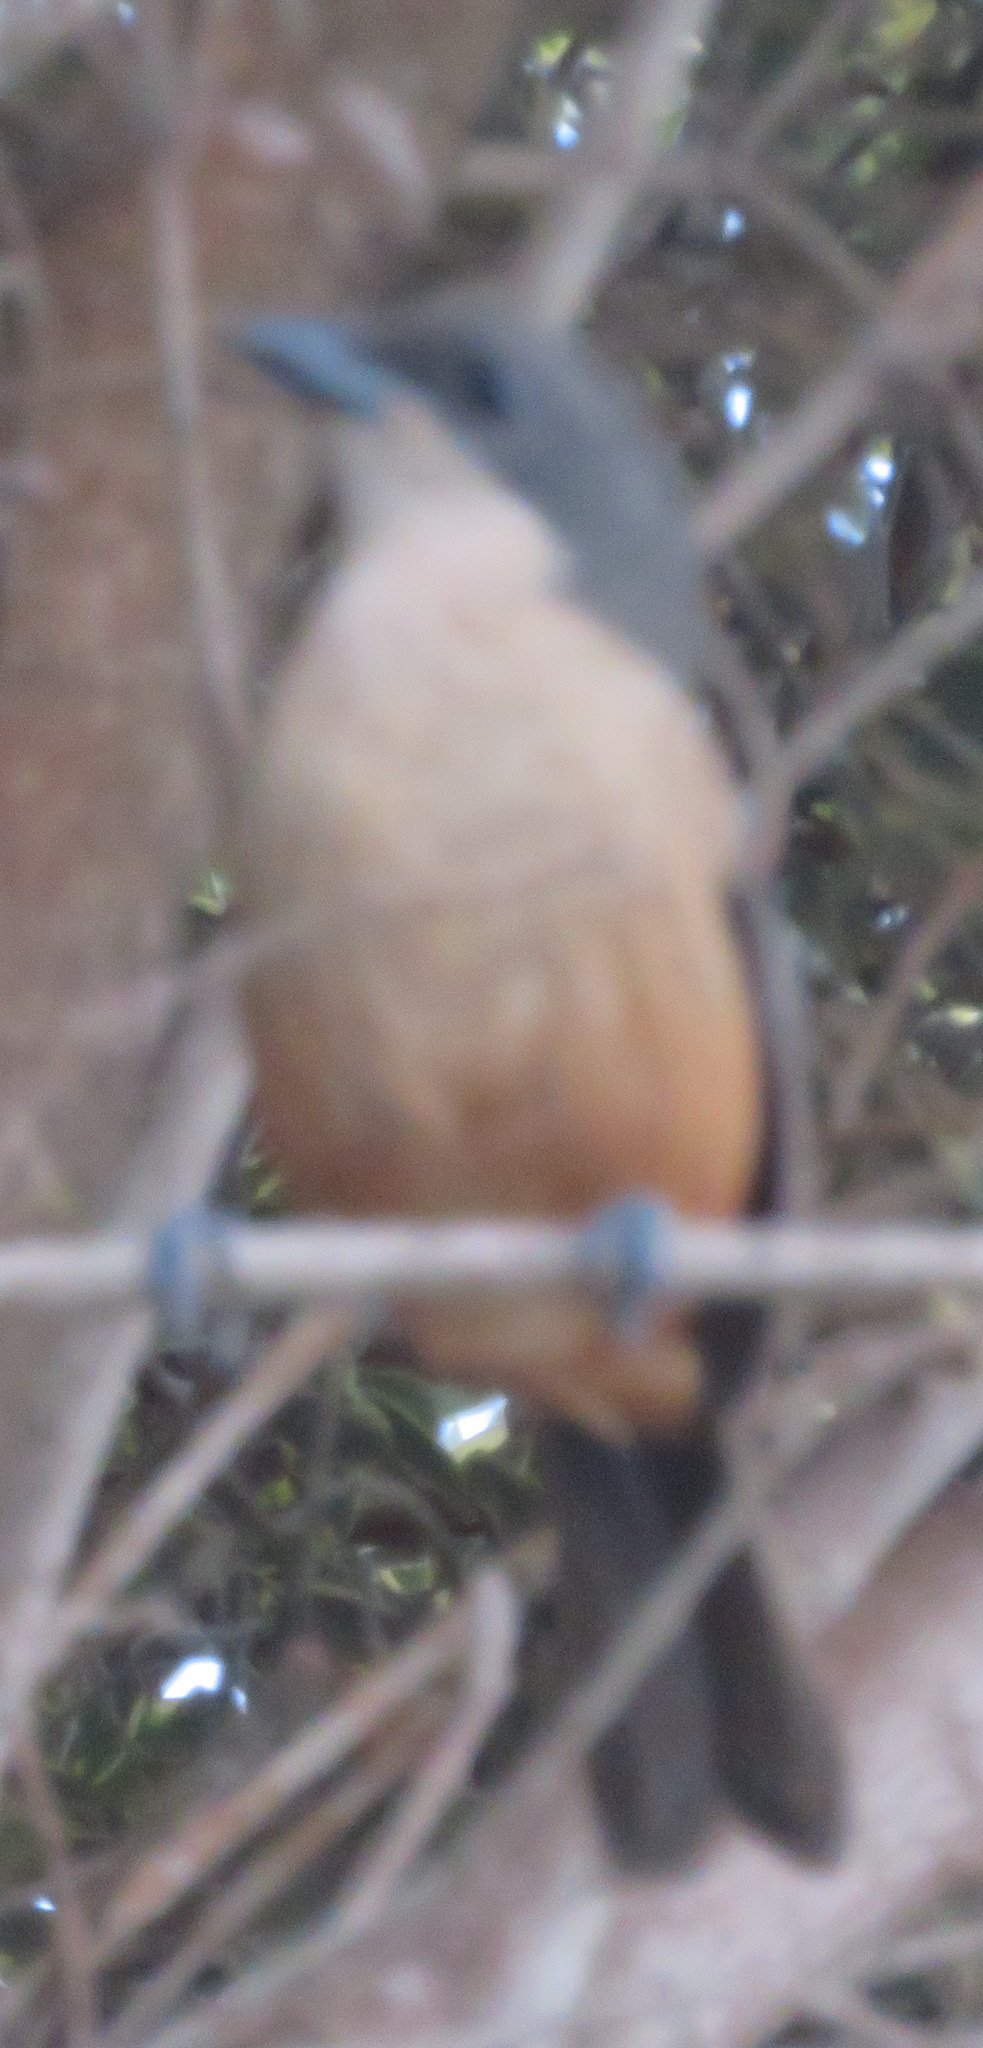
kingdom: Animalia
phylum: Chordata
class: Aves
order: Passeriformes
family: Malaconotidae
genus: Laniarius
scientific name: Laniarius ferrugineus
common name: Southern boubou
